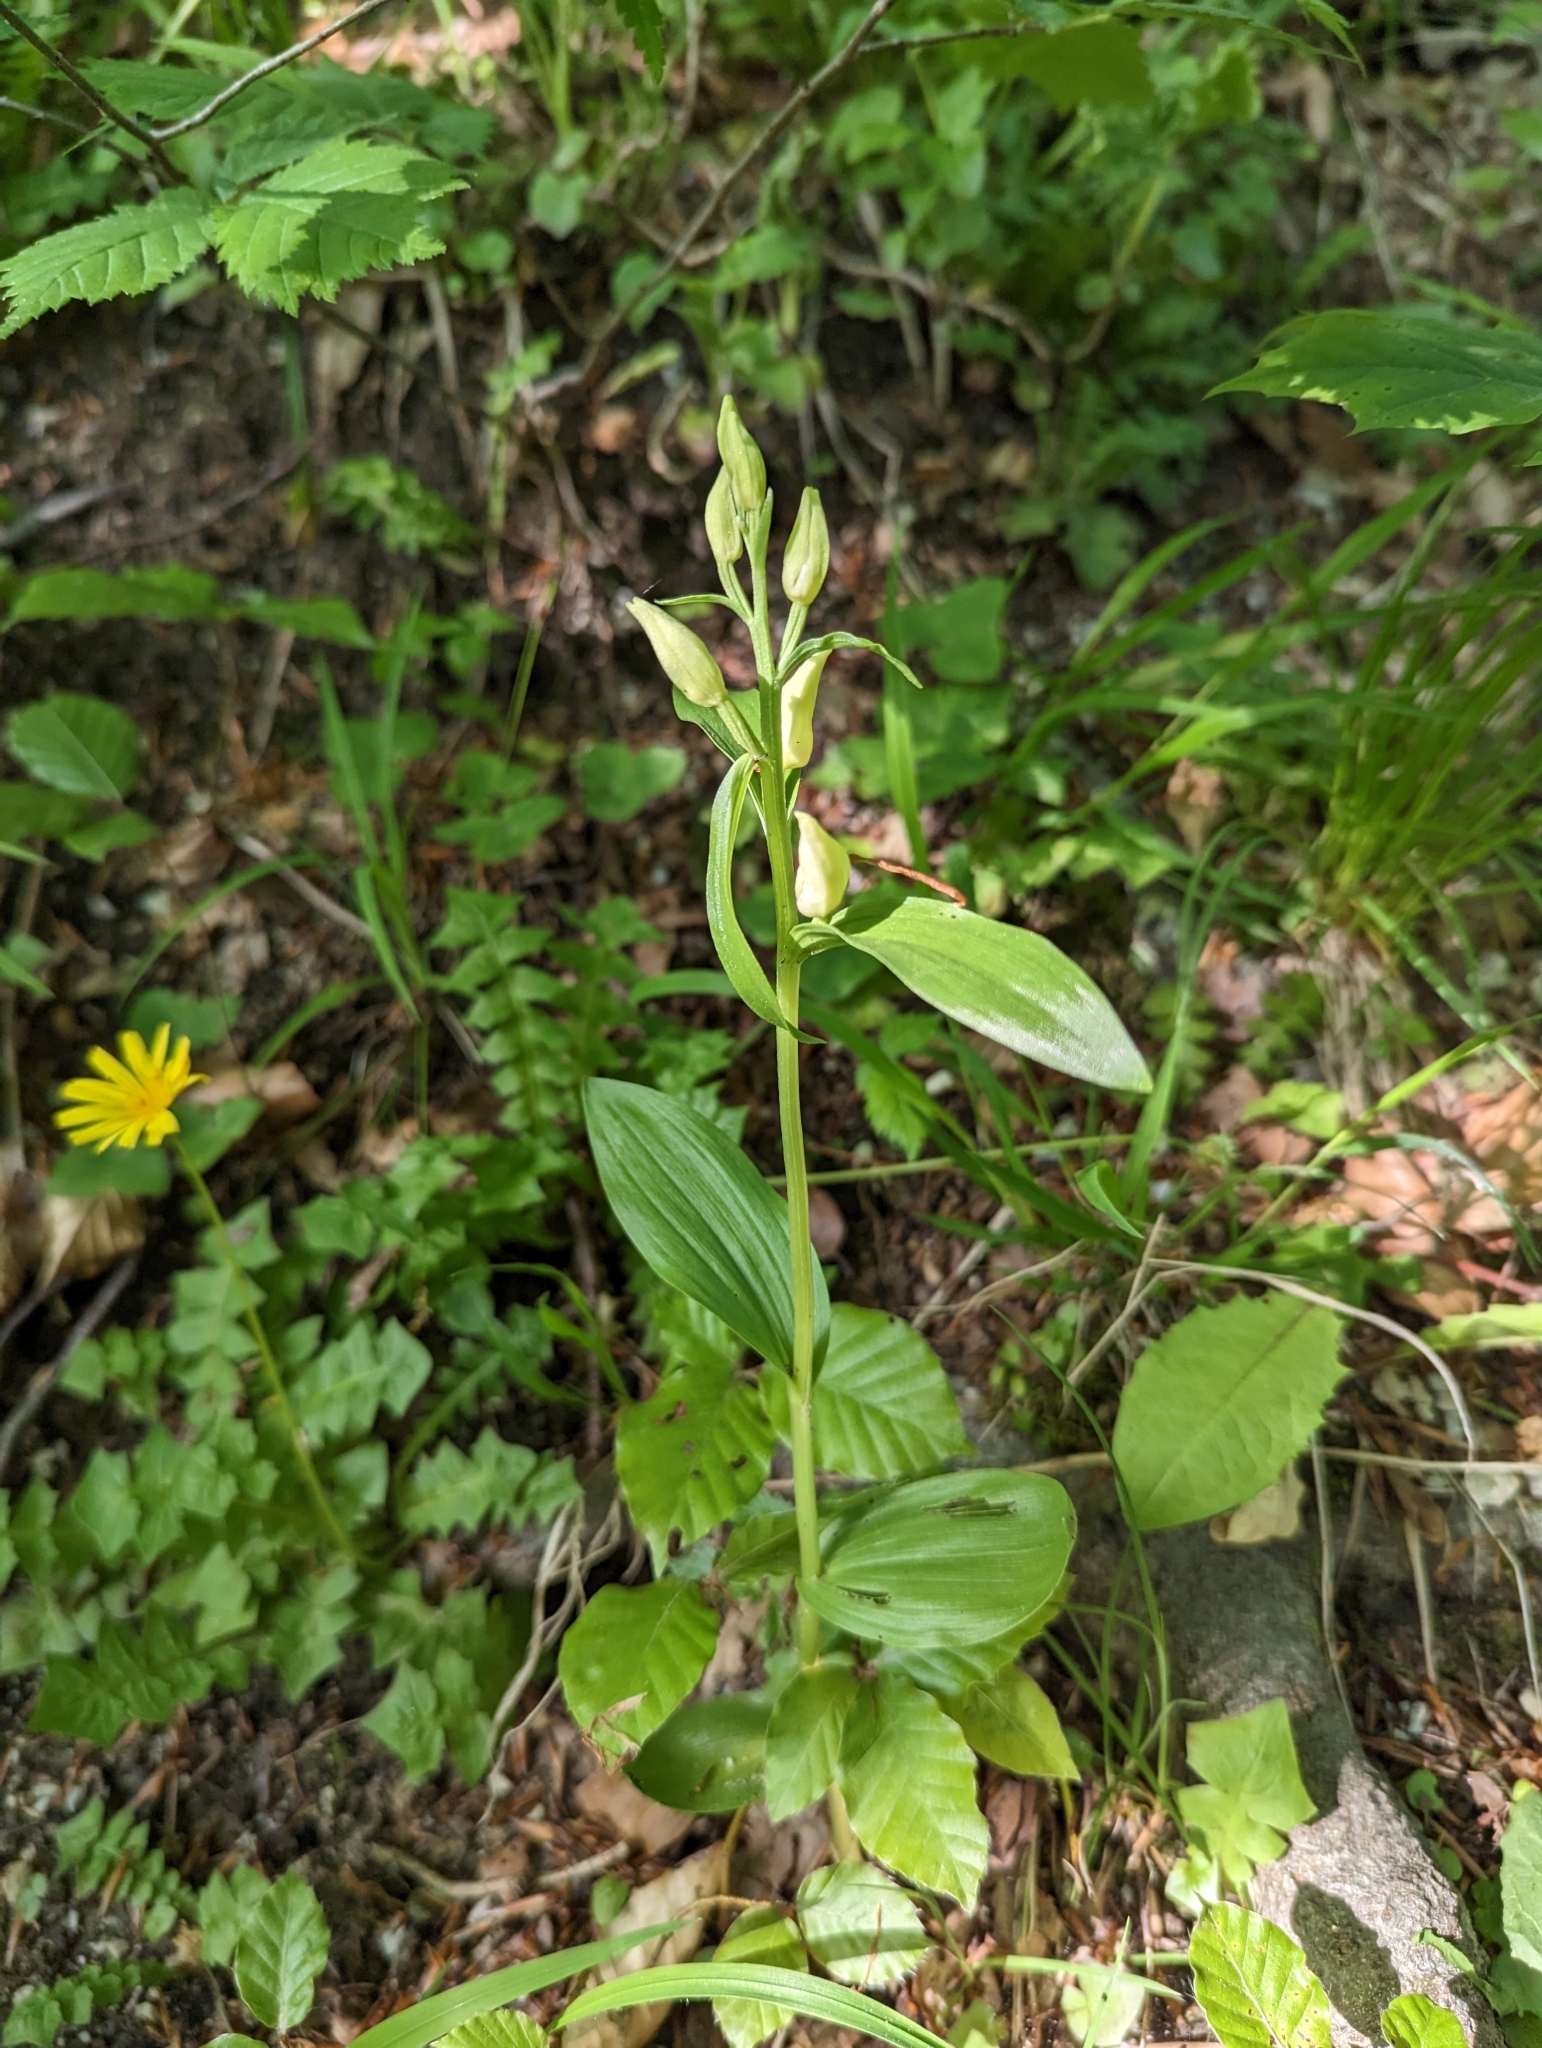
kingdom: Plantae
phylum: Tracheophyta
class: Liliopsida
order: Asparagales
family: Orchidaceae
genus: Cephalanthera
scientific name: Cephalanthera damasonium
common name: White helleborine
